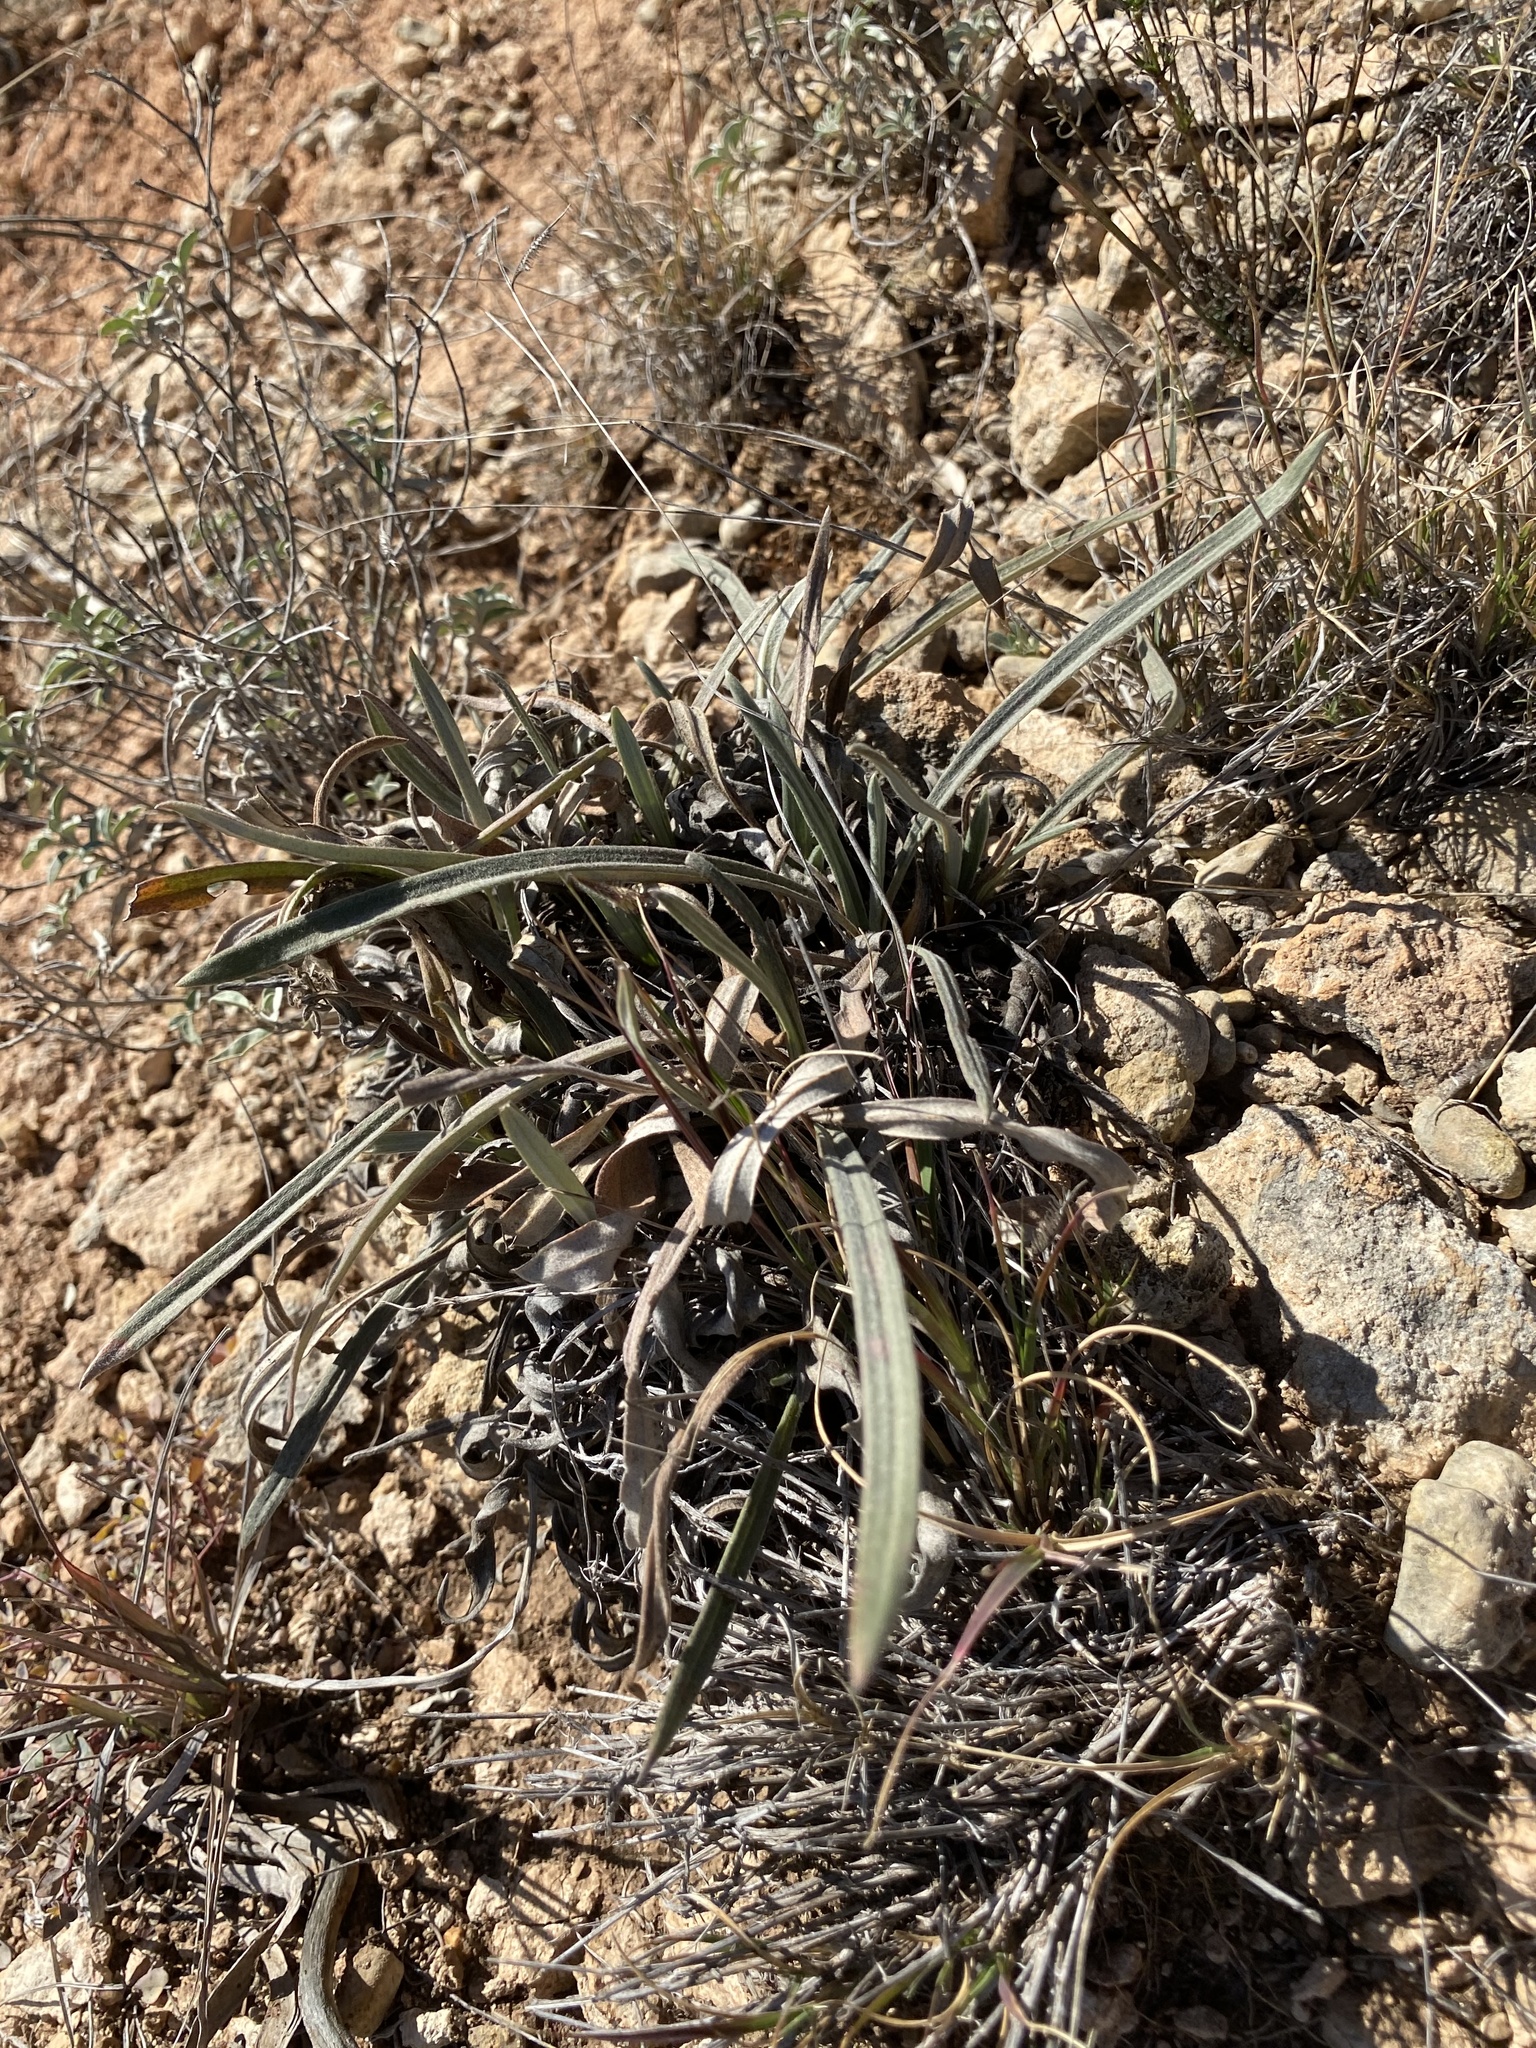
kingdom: Plantae
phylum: Tracheophyta
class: Magnoliopsida
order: Caryophyllales
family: Polygonaceae
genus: Eriogonum
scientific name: Eriogonum longifolium
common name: Longleaf wild buckwheat
